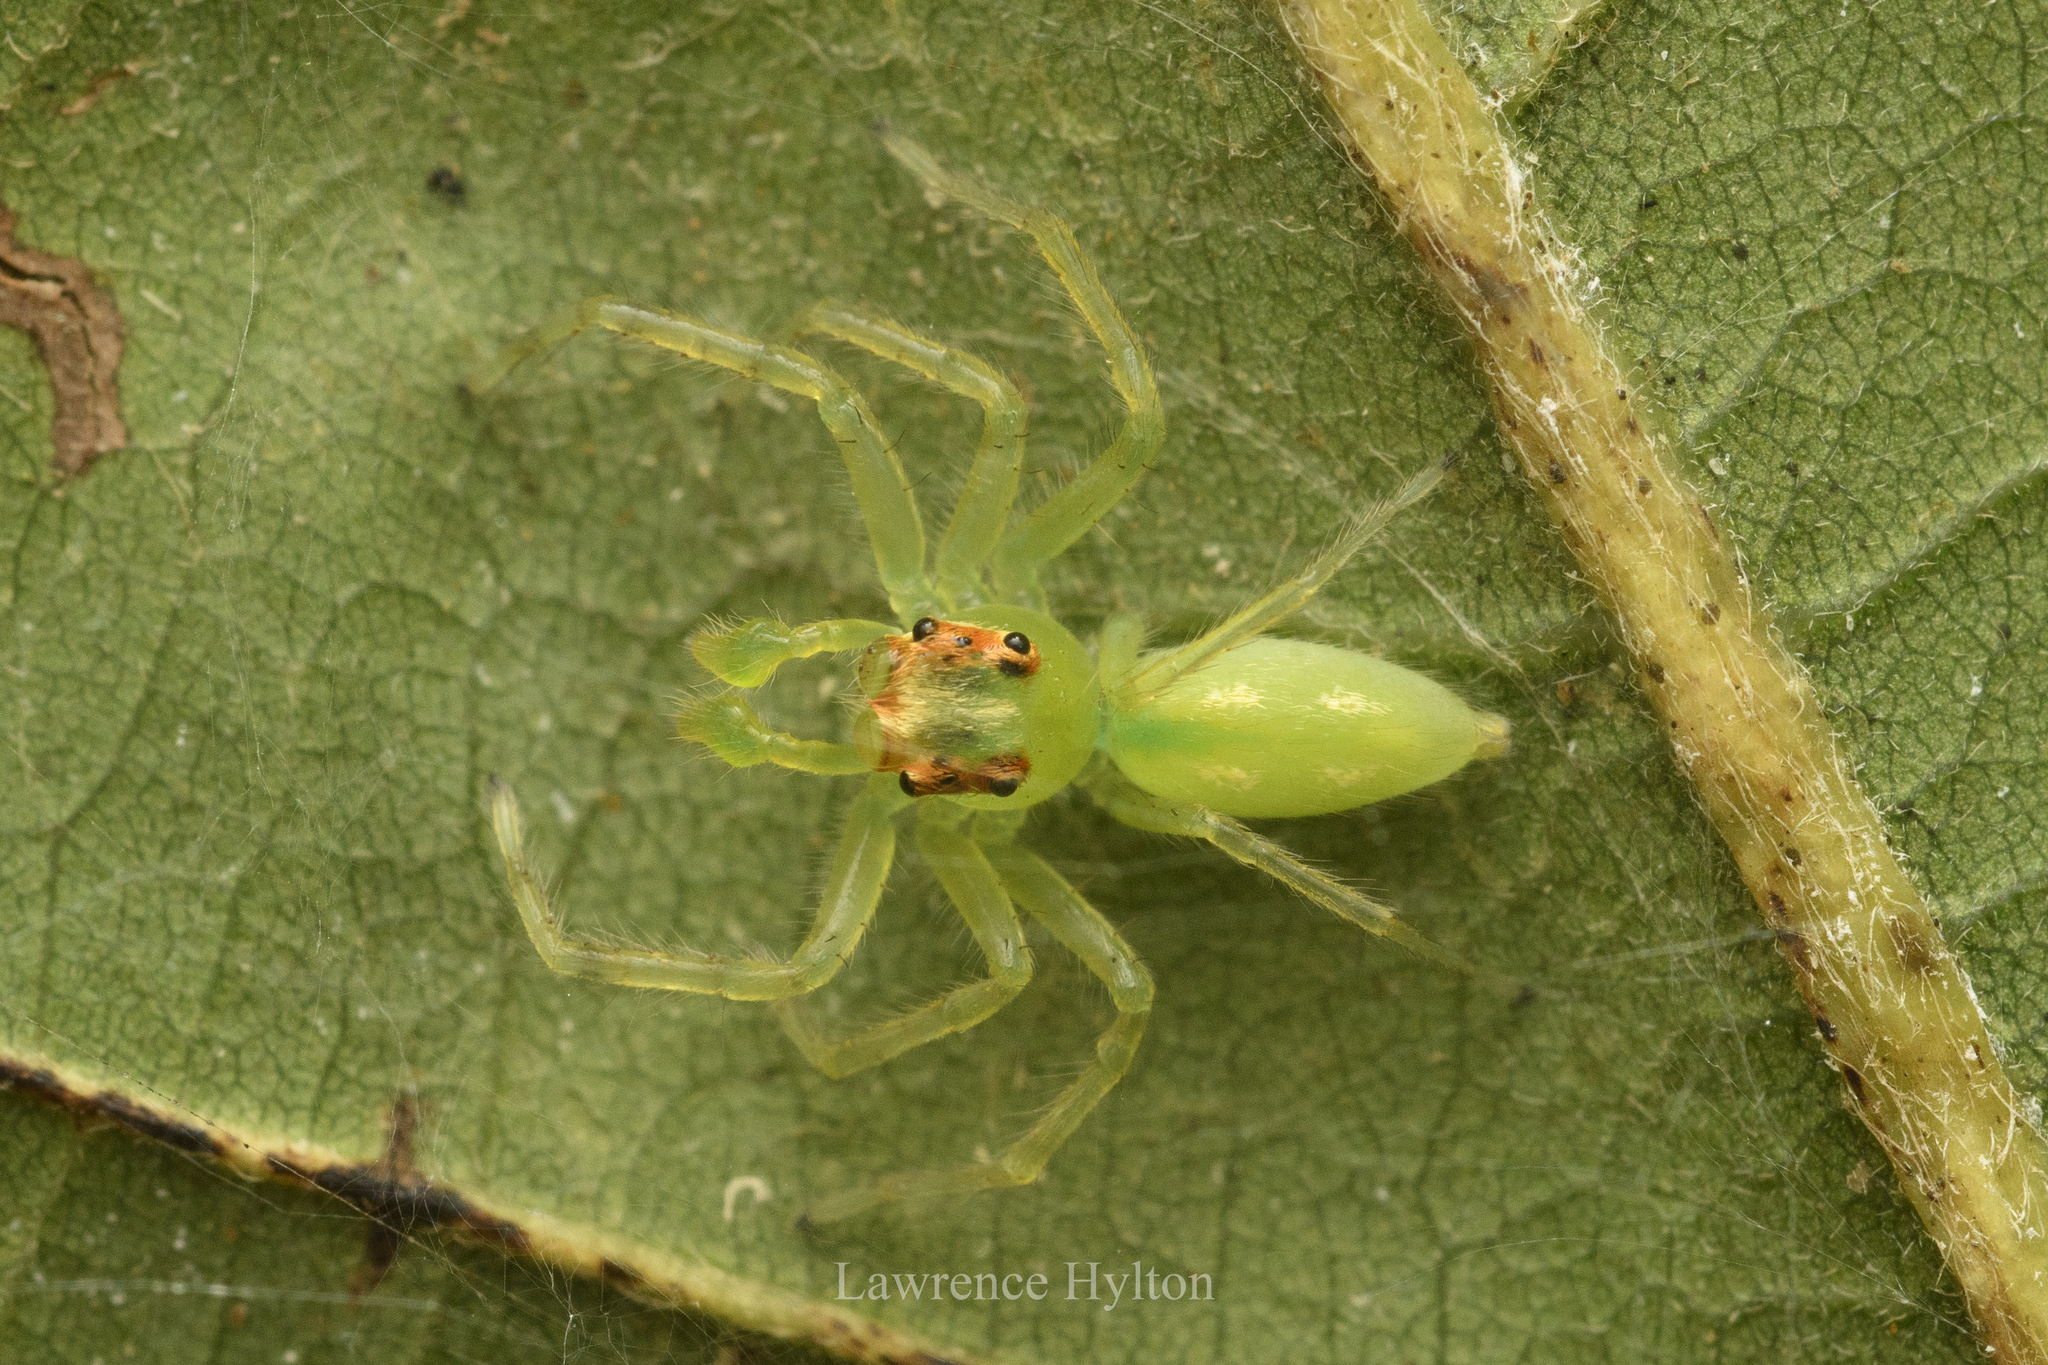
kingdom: Animalia
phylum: Arthropoda
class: Arachnida
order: Araneae
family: Salticidae
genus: Epeus
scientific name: Epeus glorius
